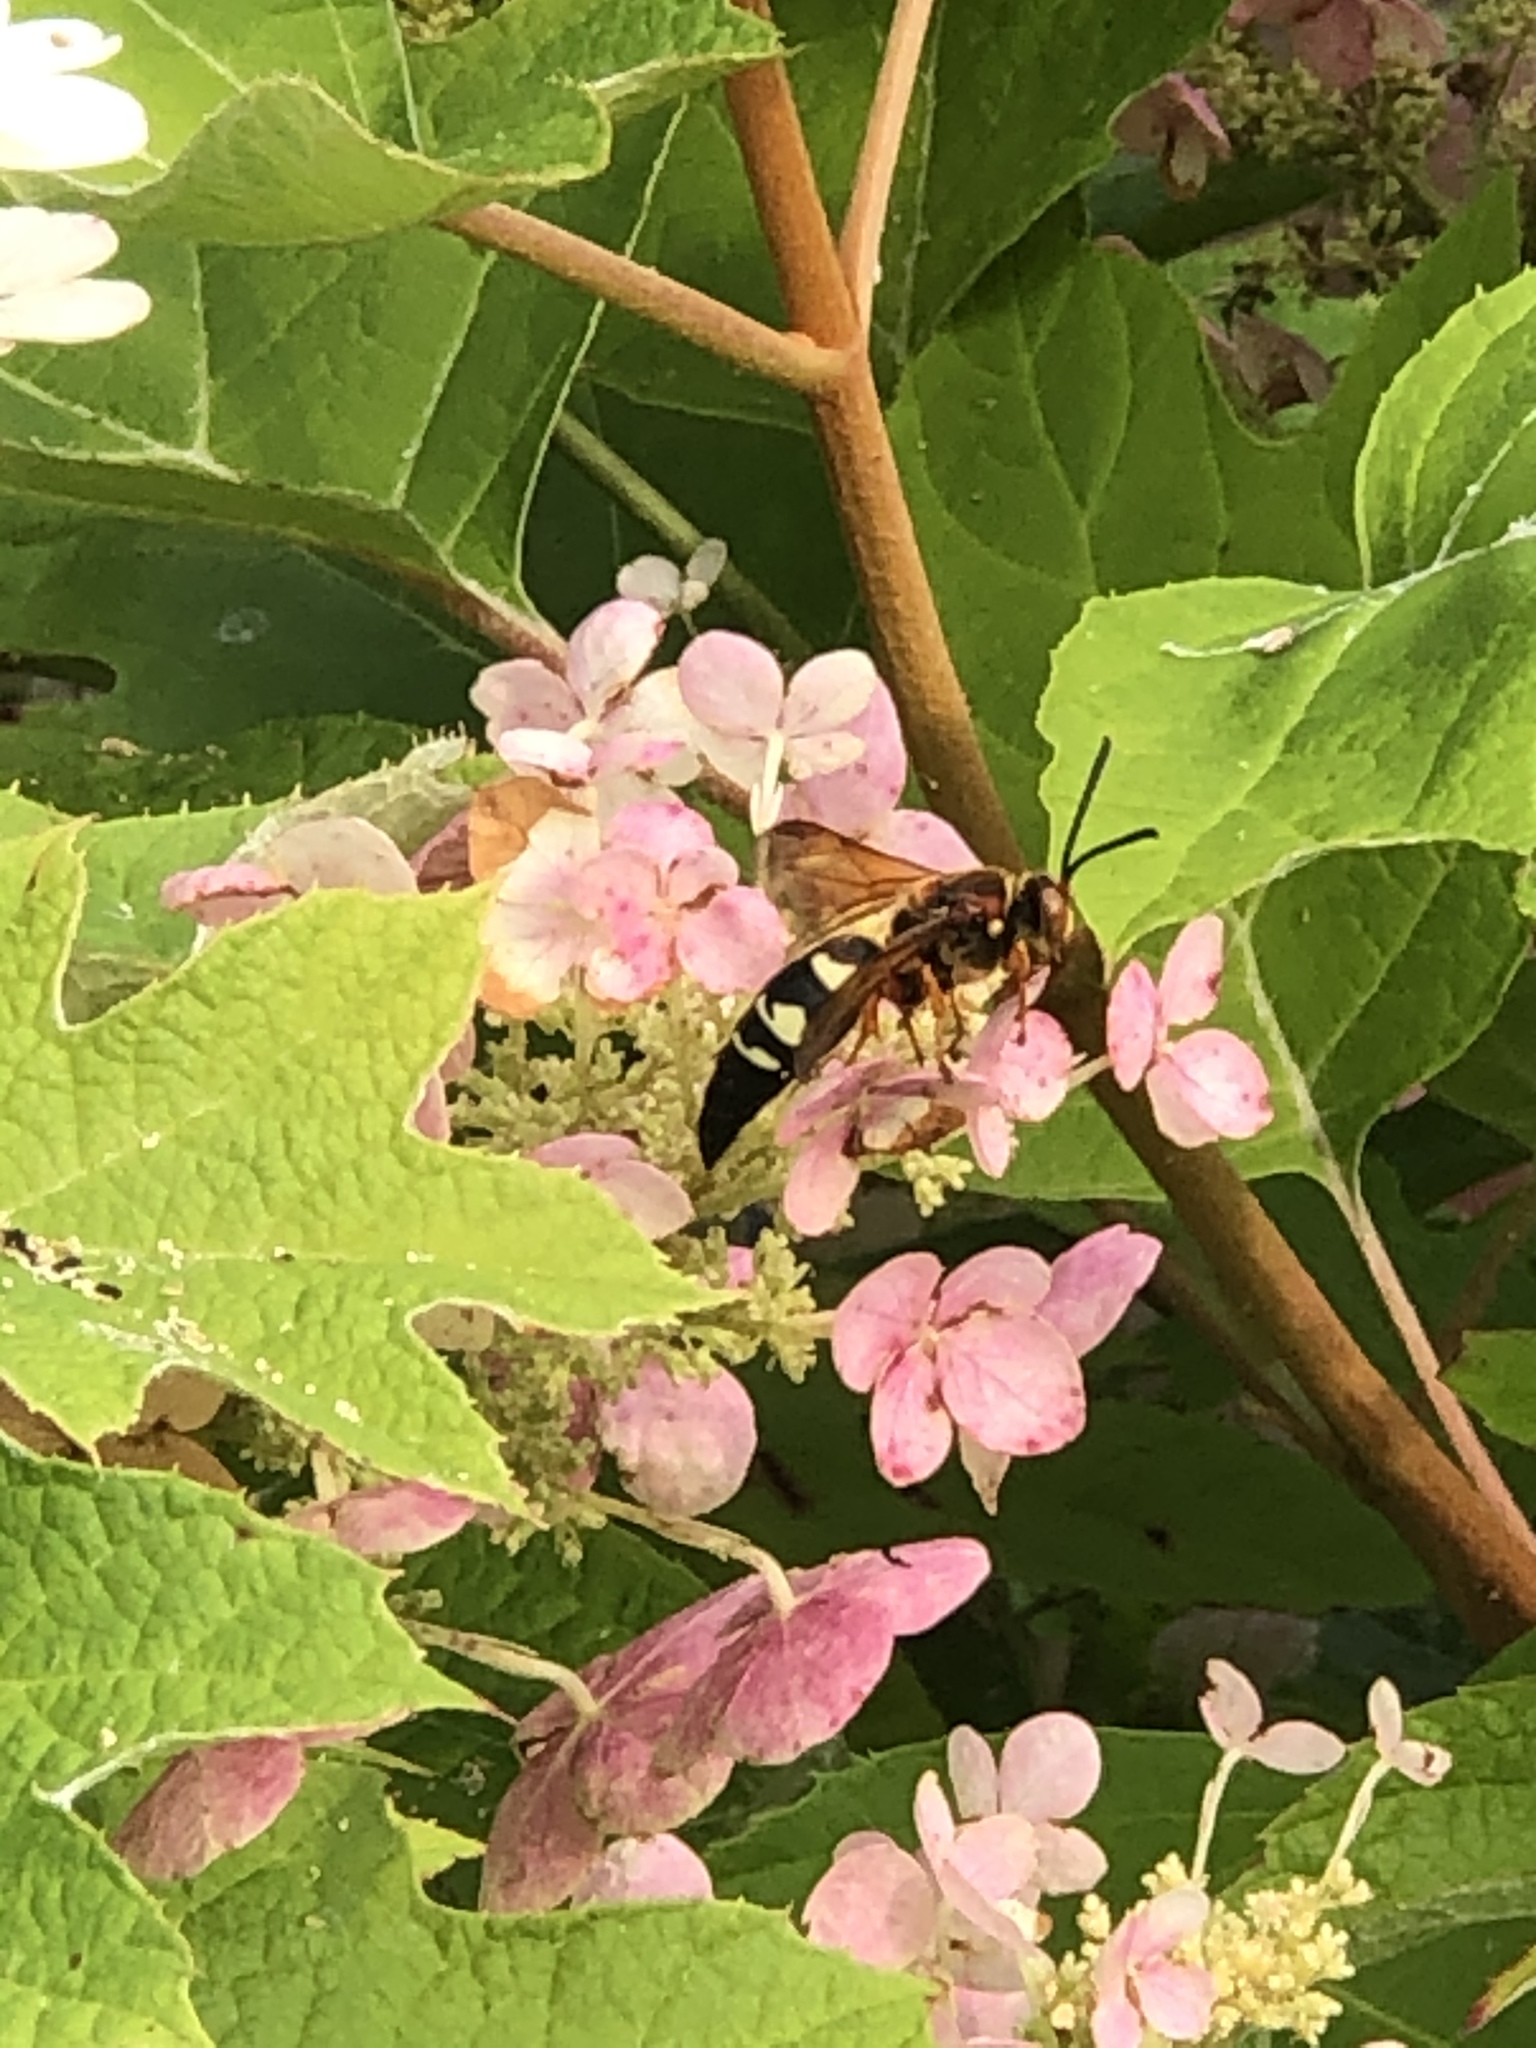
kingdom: Animalia
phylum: Arthropoda
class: Insecta
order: Hymenoptera
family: Crabronidae
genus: Sphecius
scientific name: Sphecius speciosus
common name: Cicada killer
